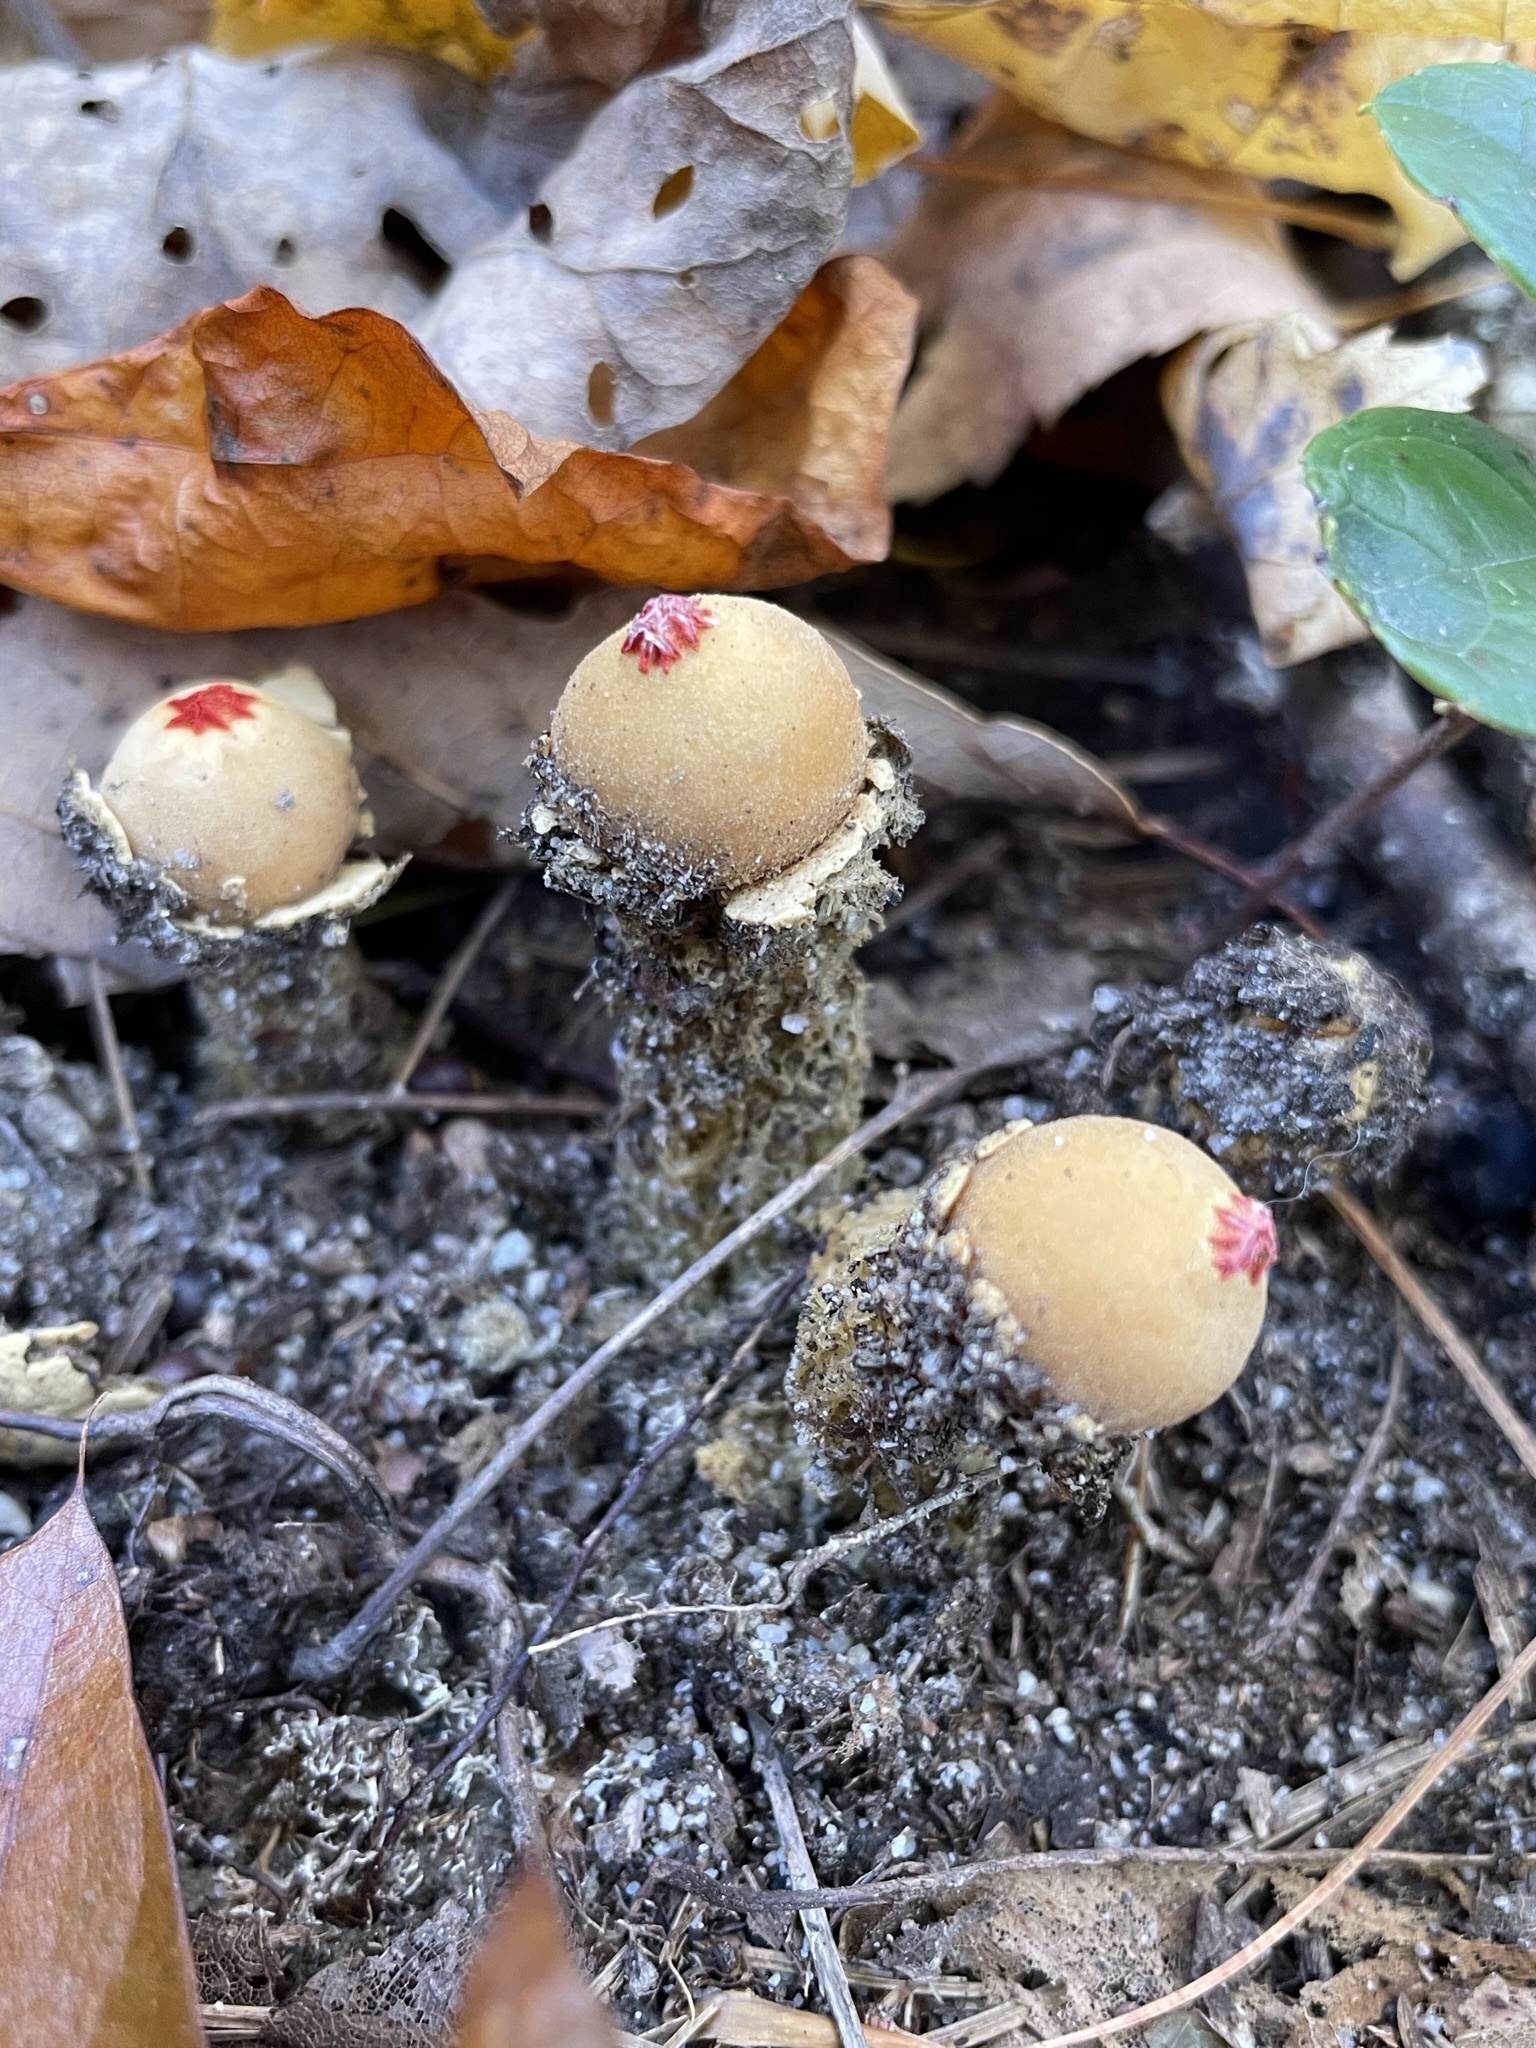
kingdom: Fungi
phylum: Basidiomycota
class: Agaricomycetes
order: Boletales
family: Calostomataceae
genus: Calostoma
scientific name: Calostoma lutescens
